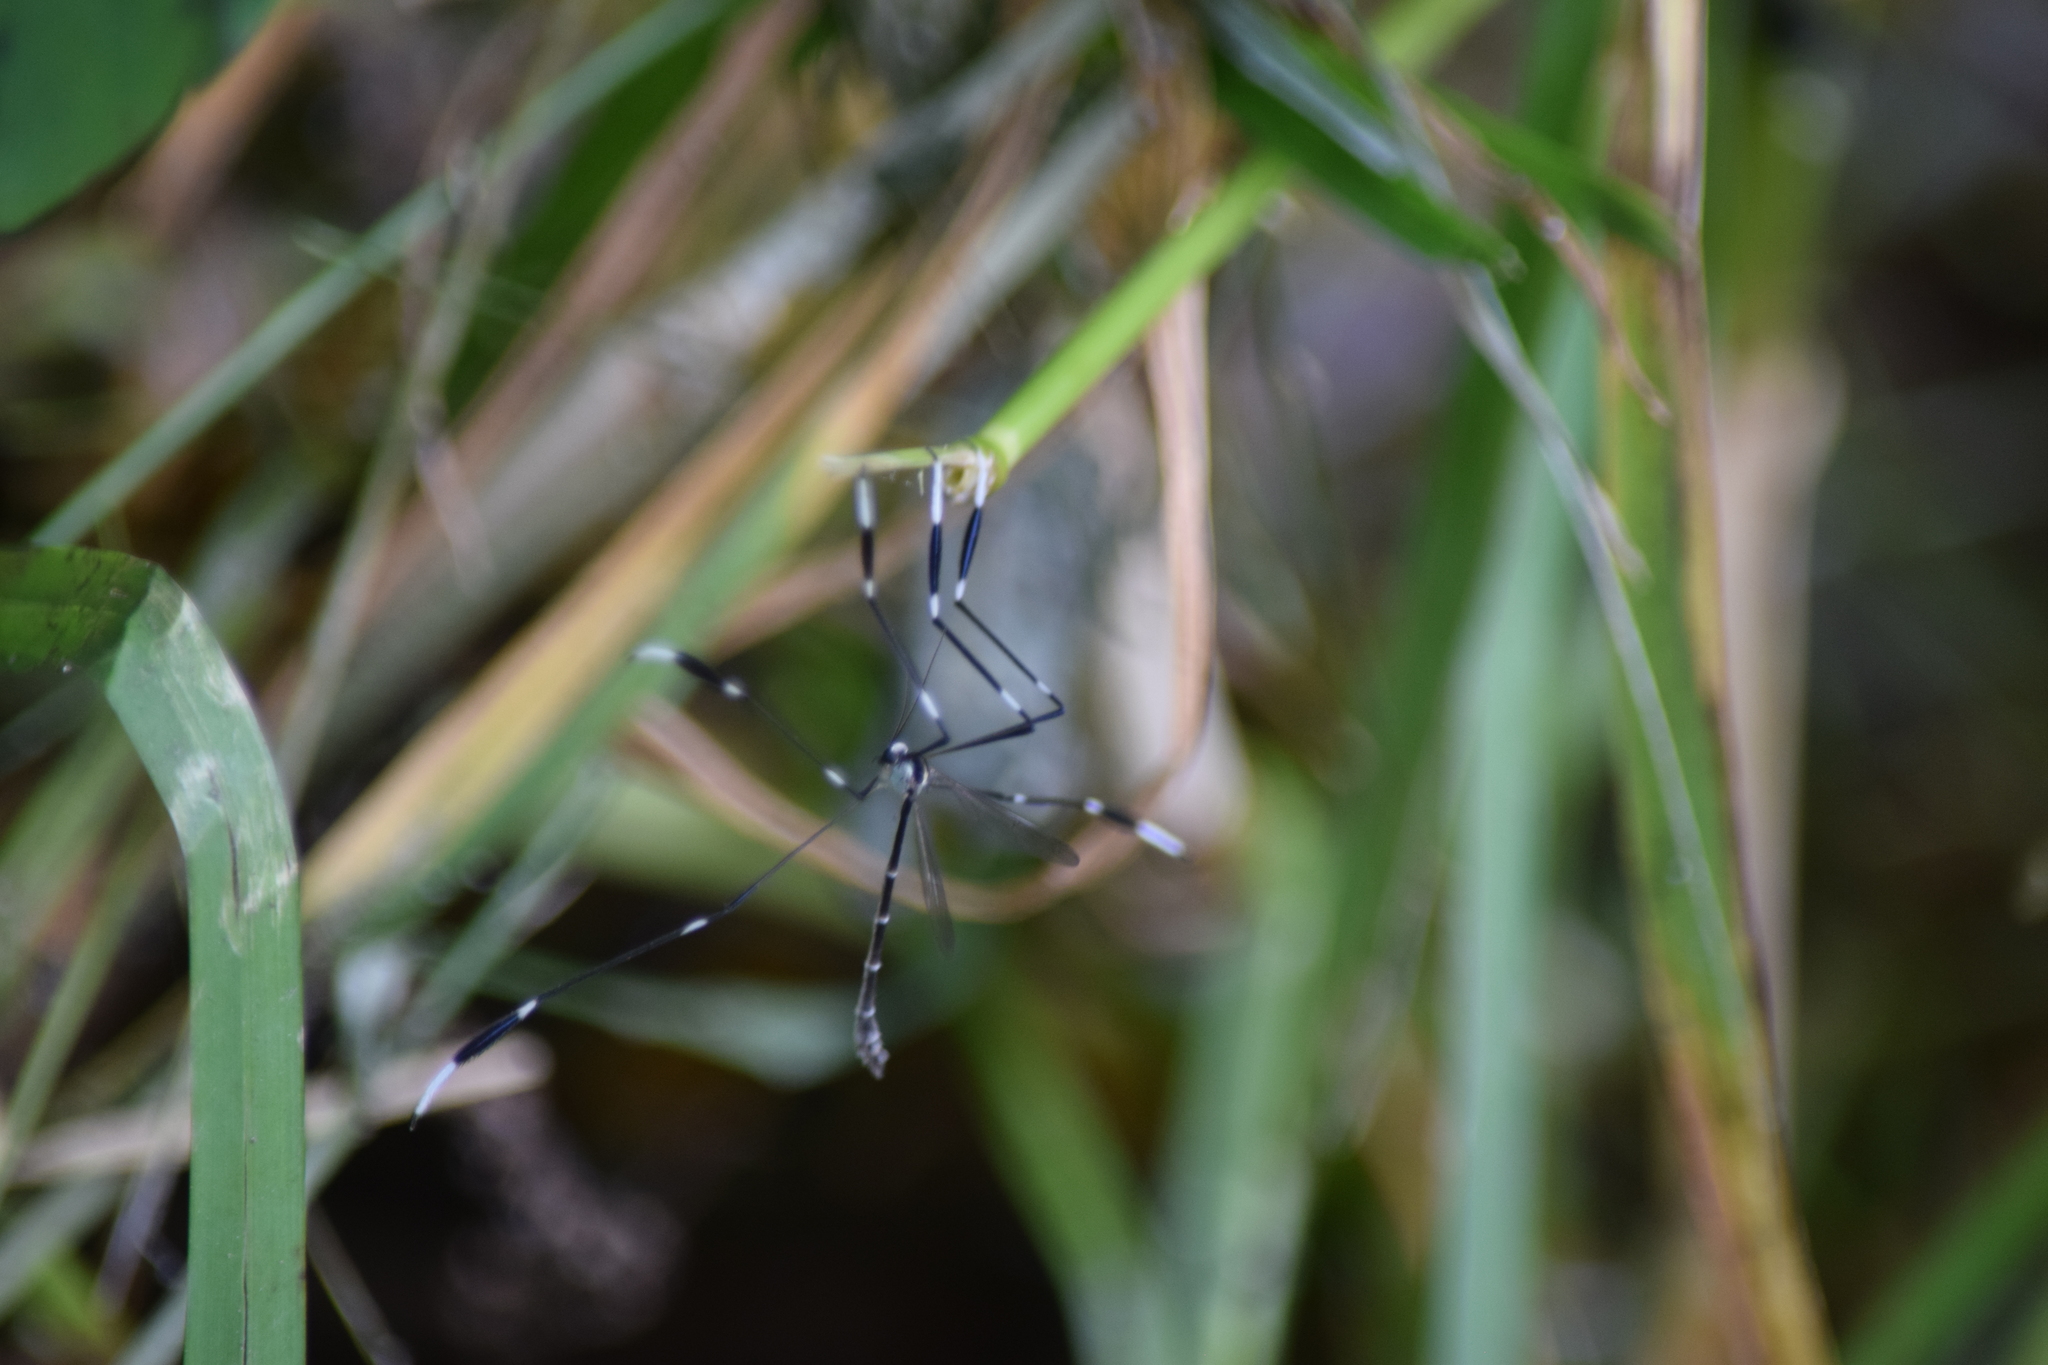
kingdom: Animalia
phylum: Arthropoda
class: Insecta
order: Diptera
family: Ptychopteridae
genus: Bittacomorpha
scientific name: Bittacomorpha clavipes
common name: Eastern phantom crane fly
